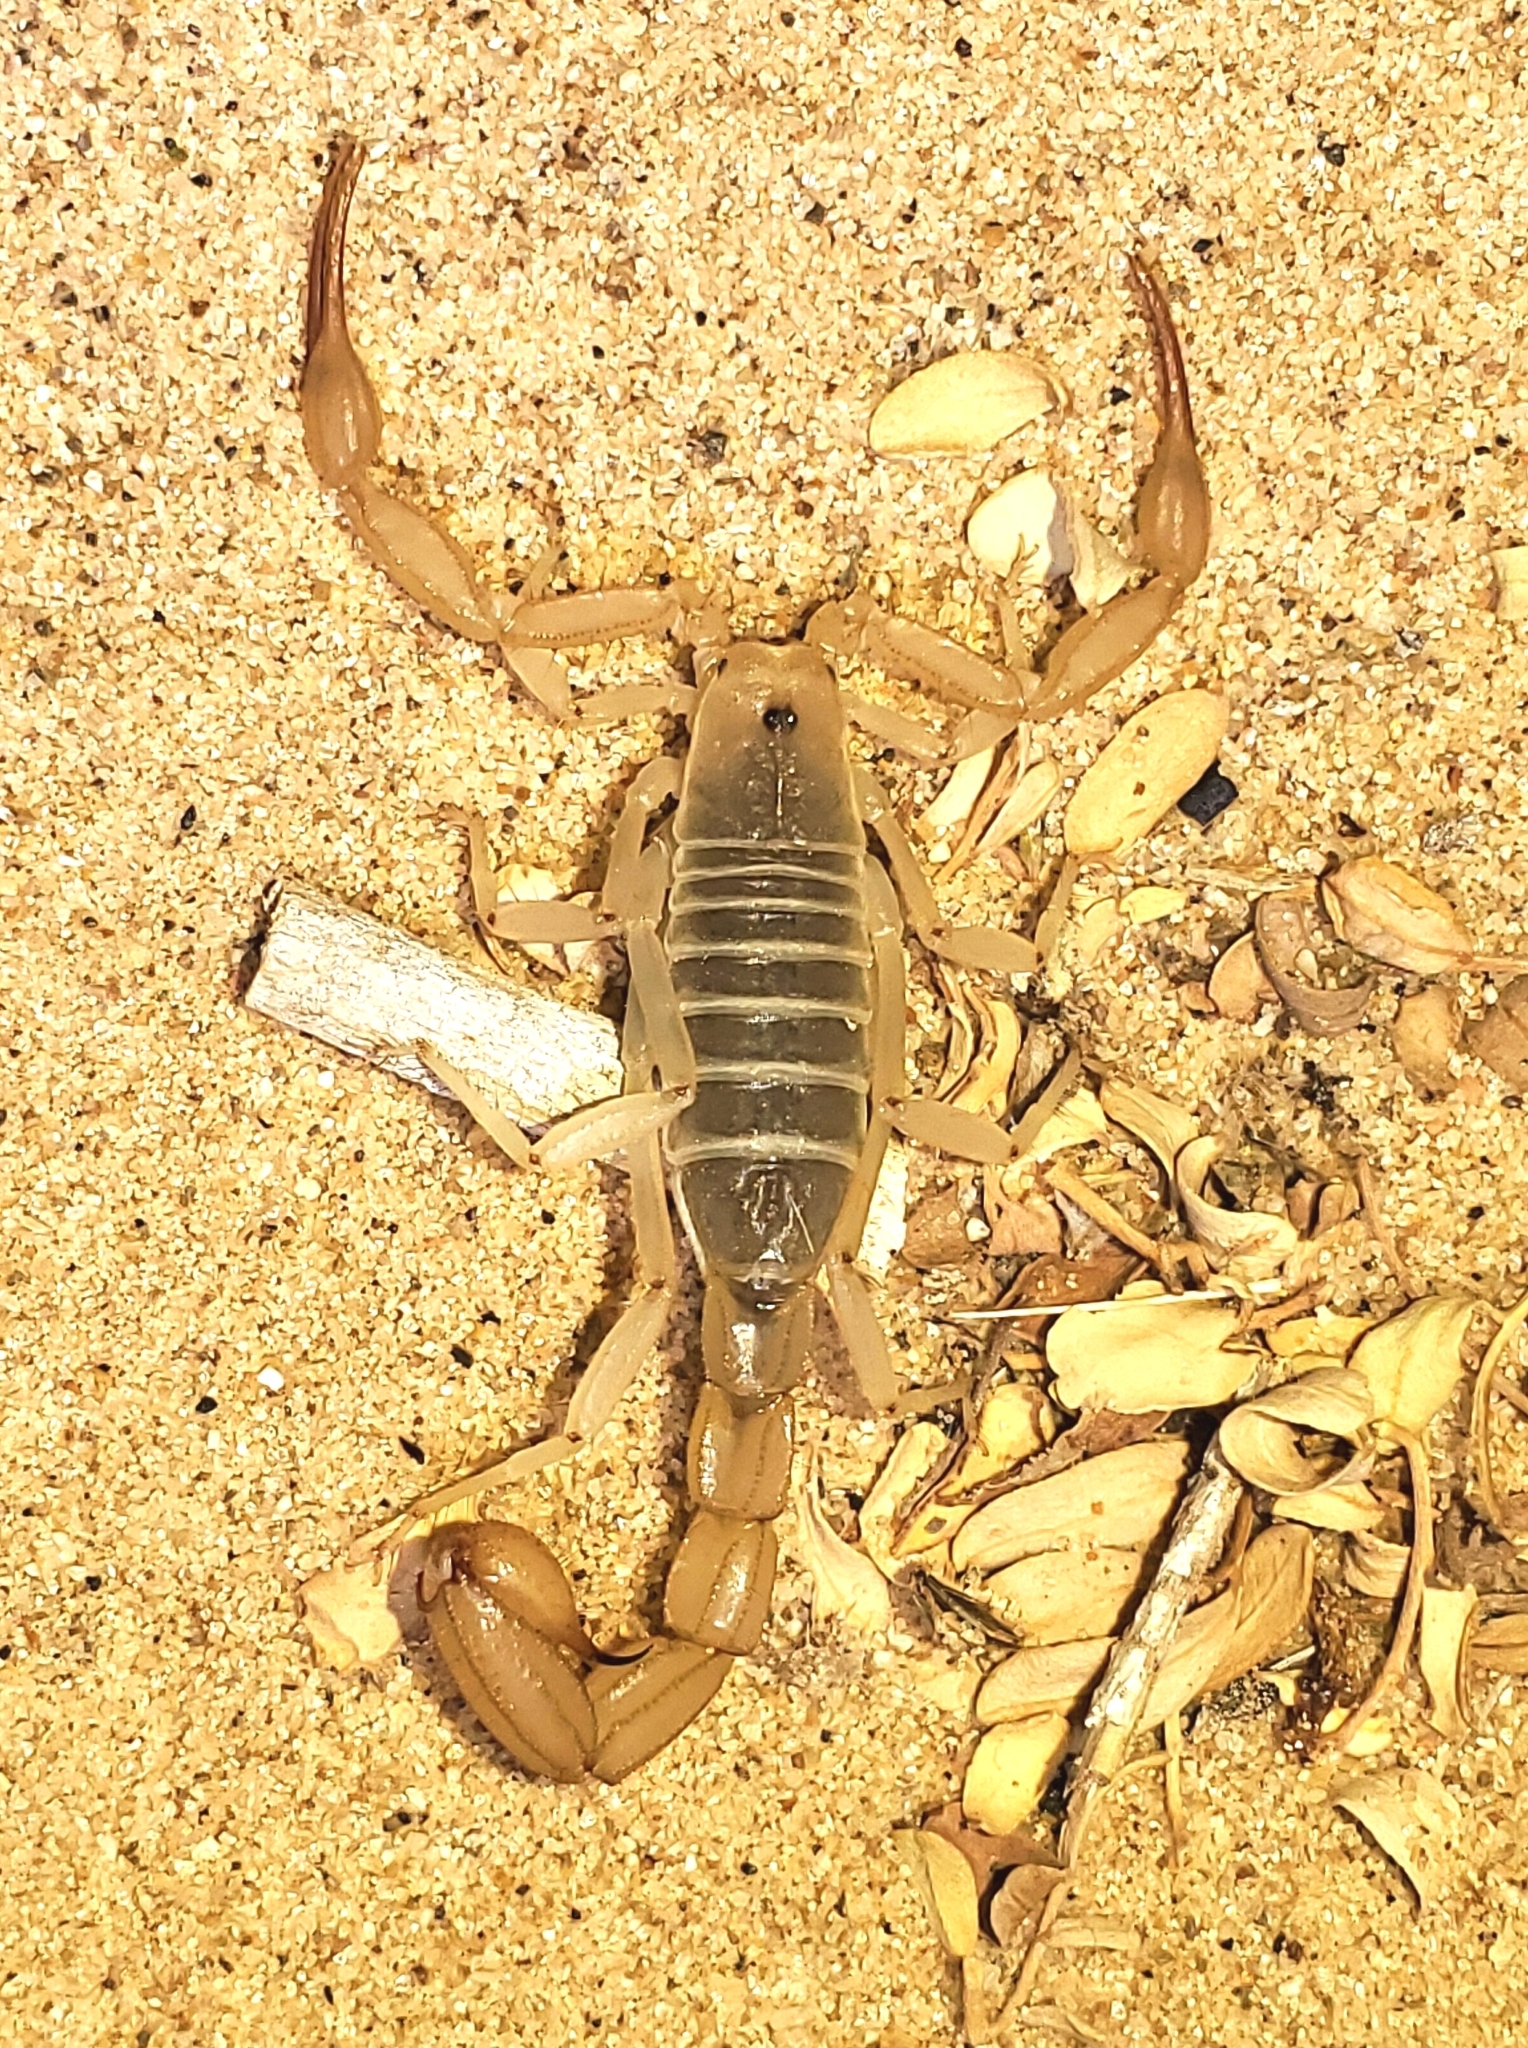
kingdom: Animalia
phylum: Arthropoda
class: Arachnida
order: Scorpiones
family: Vaejovidae
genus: Paravaejovis
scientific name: Paravaejovis waeringi
